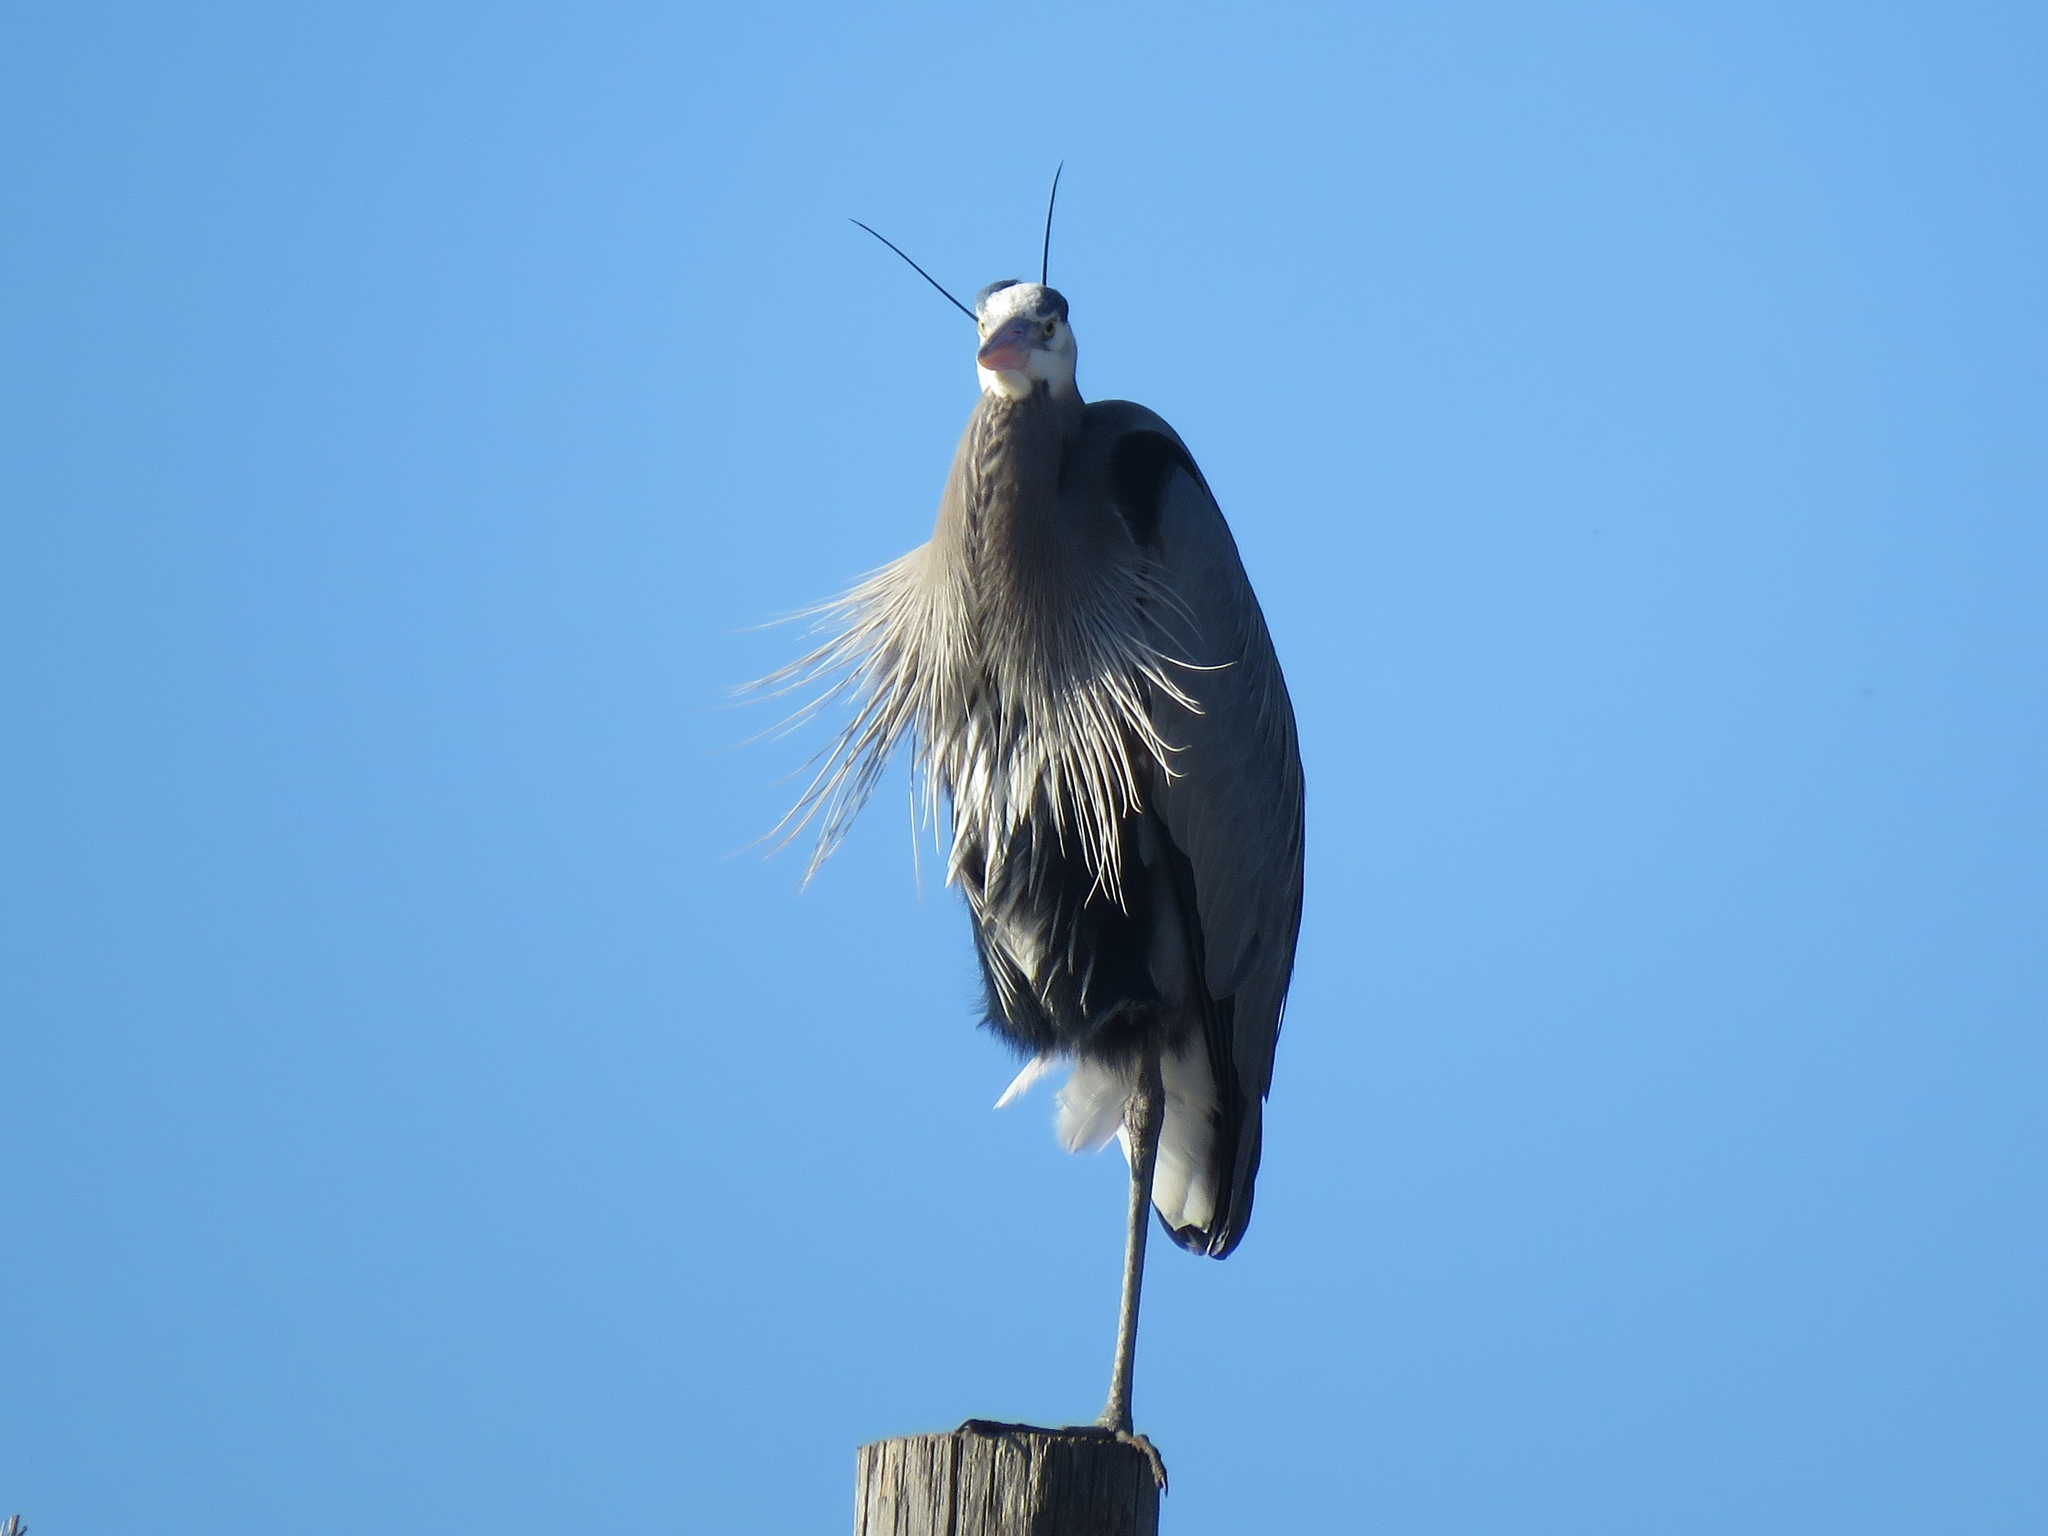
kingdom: Animalia
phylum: Chordata
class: Aves
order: Pelecaniformes
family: Ardeidae
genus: Ardea
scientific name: Ardea herodias
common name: Great blue heron
